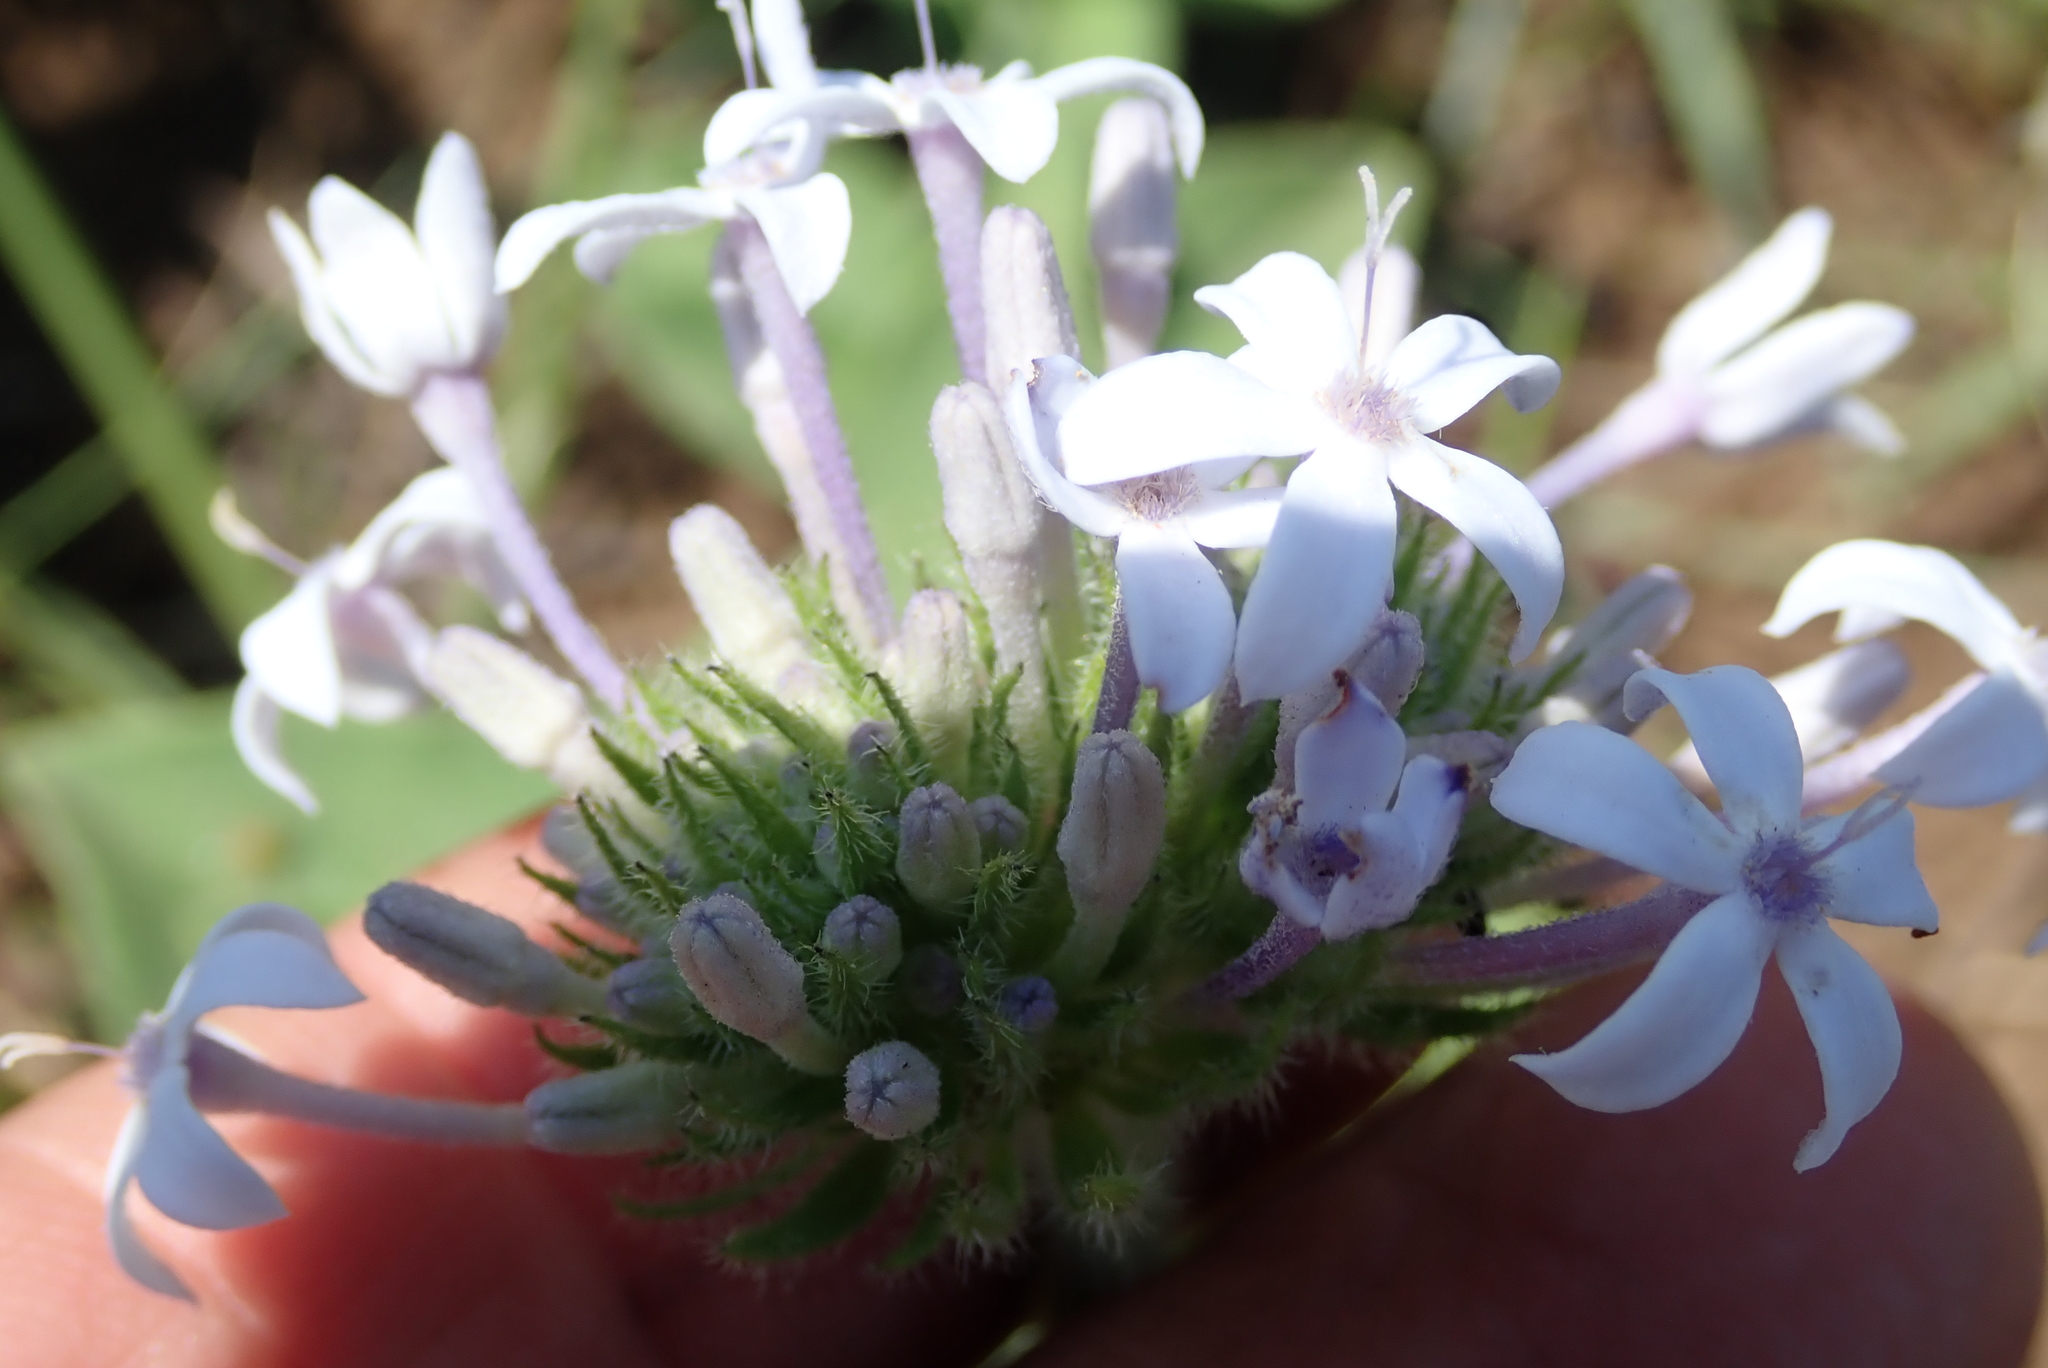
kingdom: Plantae
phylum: Tracheophyta
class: Magnoliopsida
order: Gentianales
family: Rubiaceae
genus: Pentanisia
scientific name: Pentanisia prunelloides
